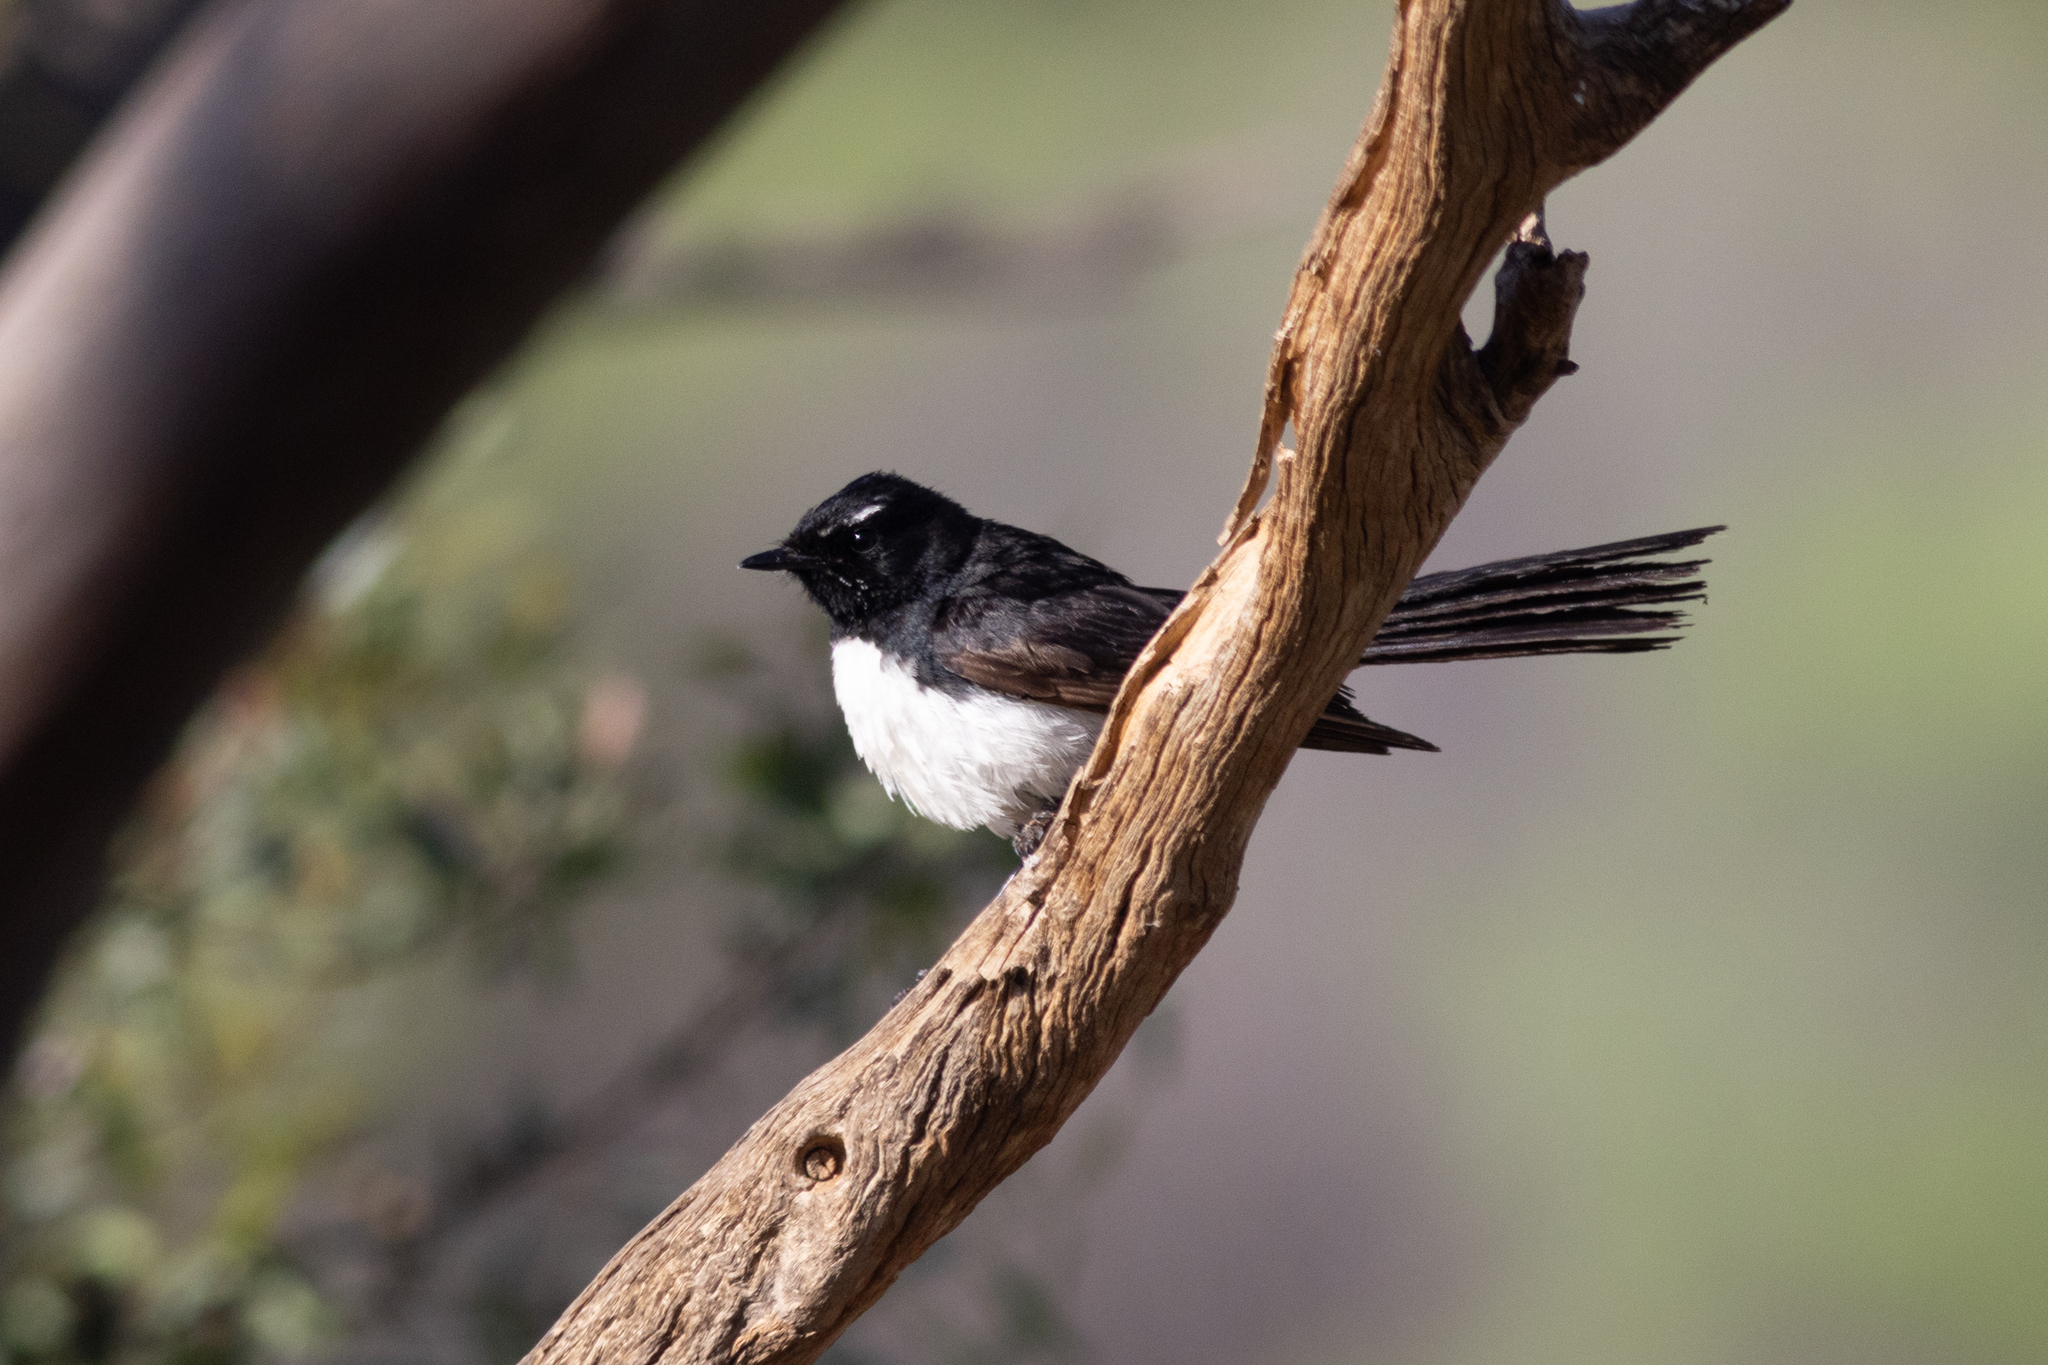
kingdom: Animalia
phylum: Chordata
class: Aves
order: Passeriformes
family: Rhipiduridae
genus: Rhipidura
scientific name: Rhipidura leucophrys
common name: Willie wagtail
